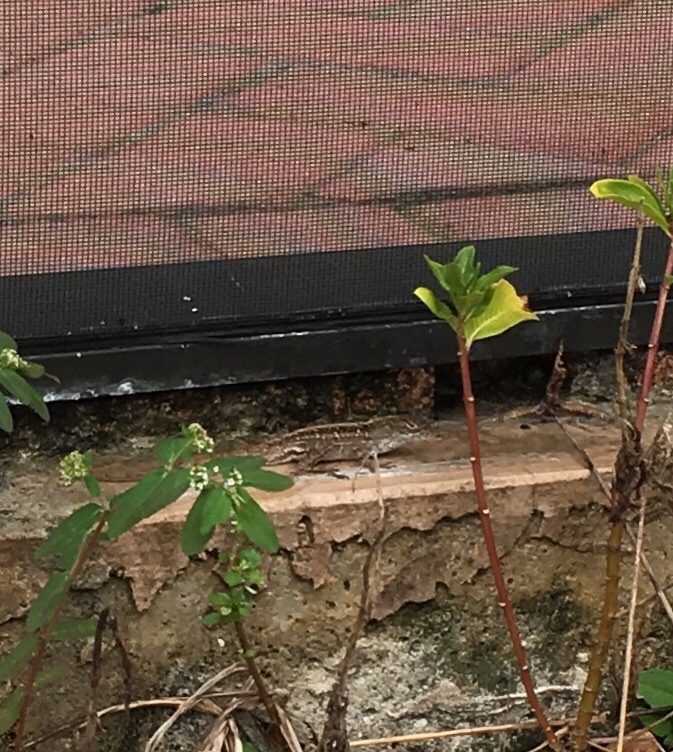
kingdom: Animalia
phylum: Chordata
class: Squamata
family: Dactyloidae
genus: Anolis
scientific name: Anolis sagrei
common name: Brown anole
